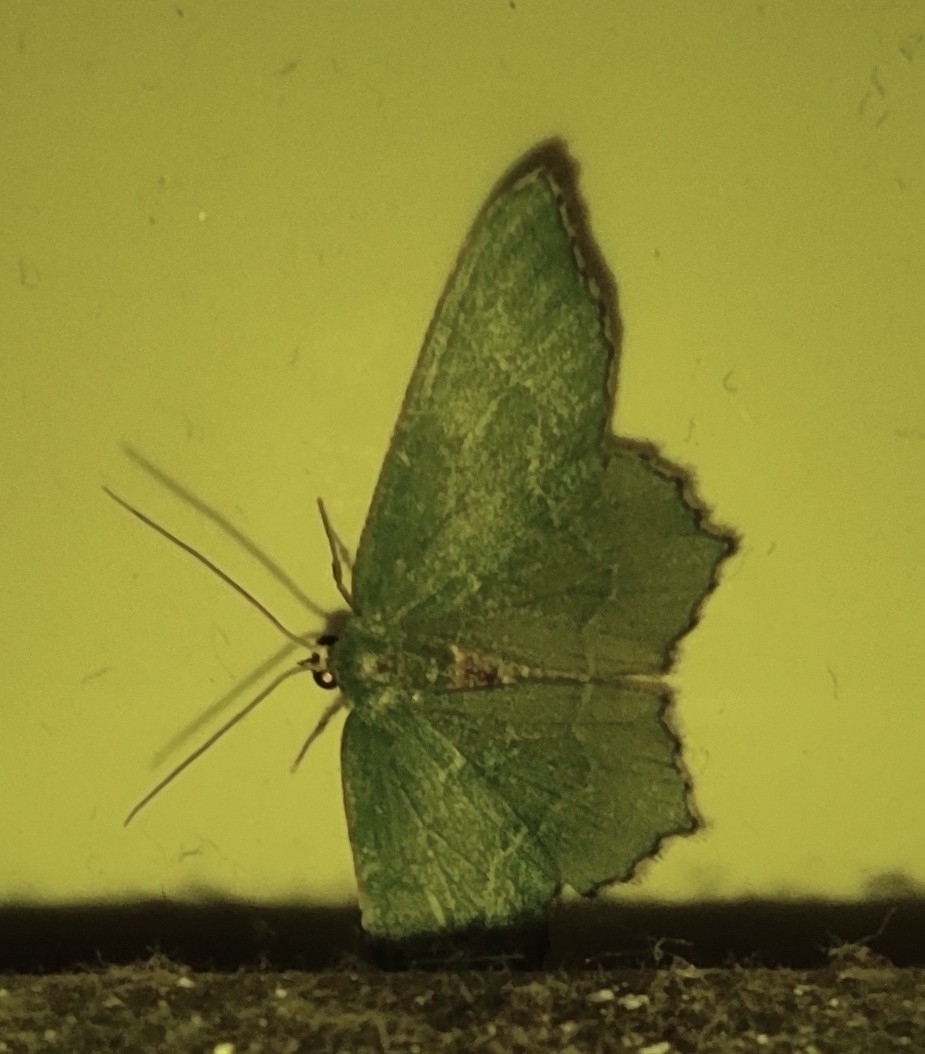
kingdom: Animalia
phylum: Arthropoda
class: Insecta
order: Lepidoptera
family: Geometridae
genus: Hemithea
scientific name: Hemithea aestivaria
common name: Common emerald
